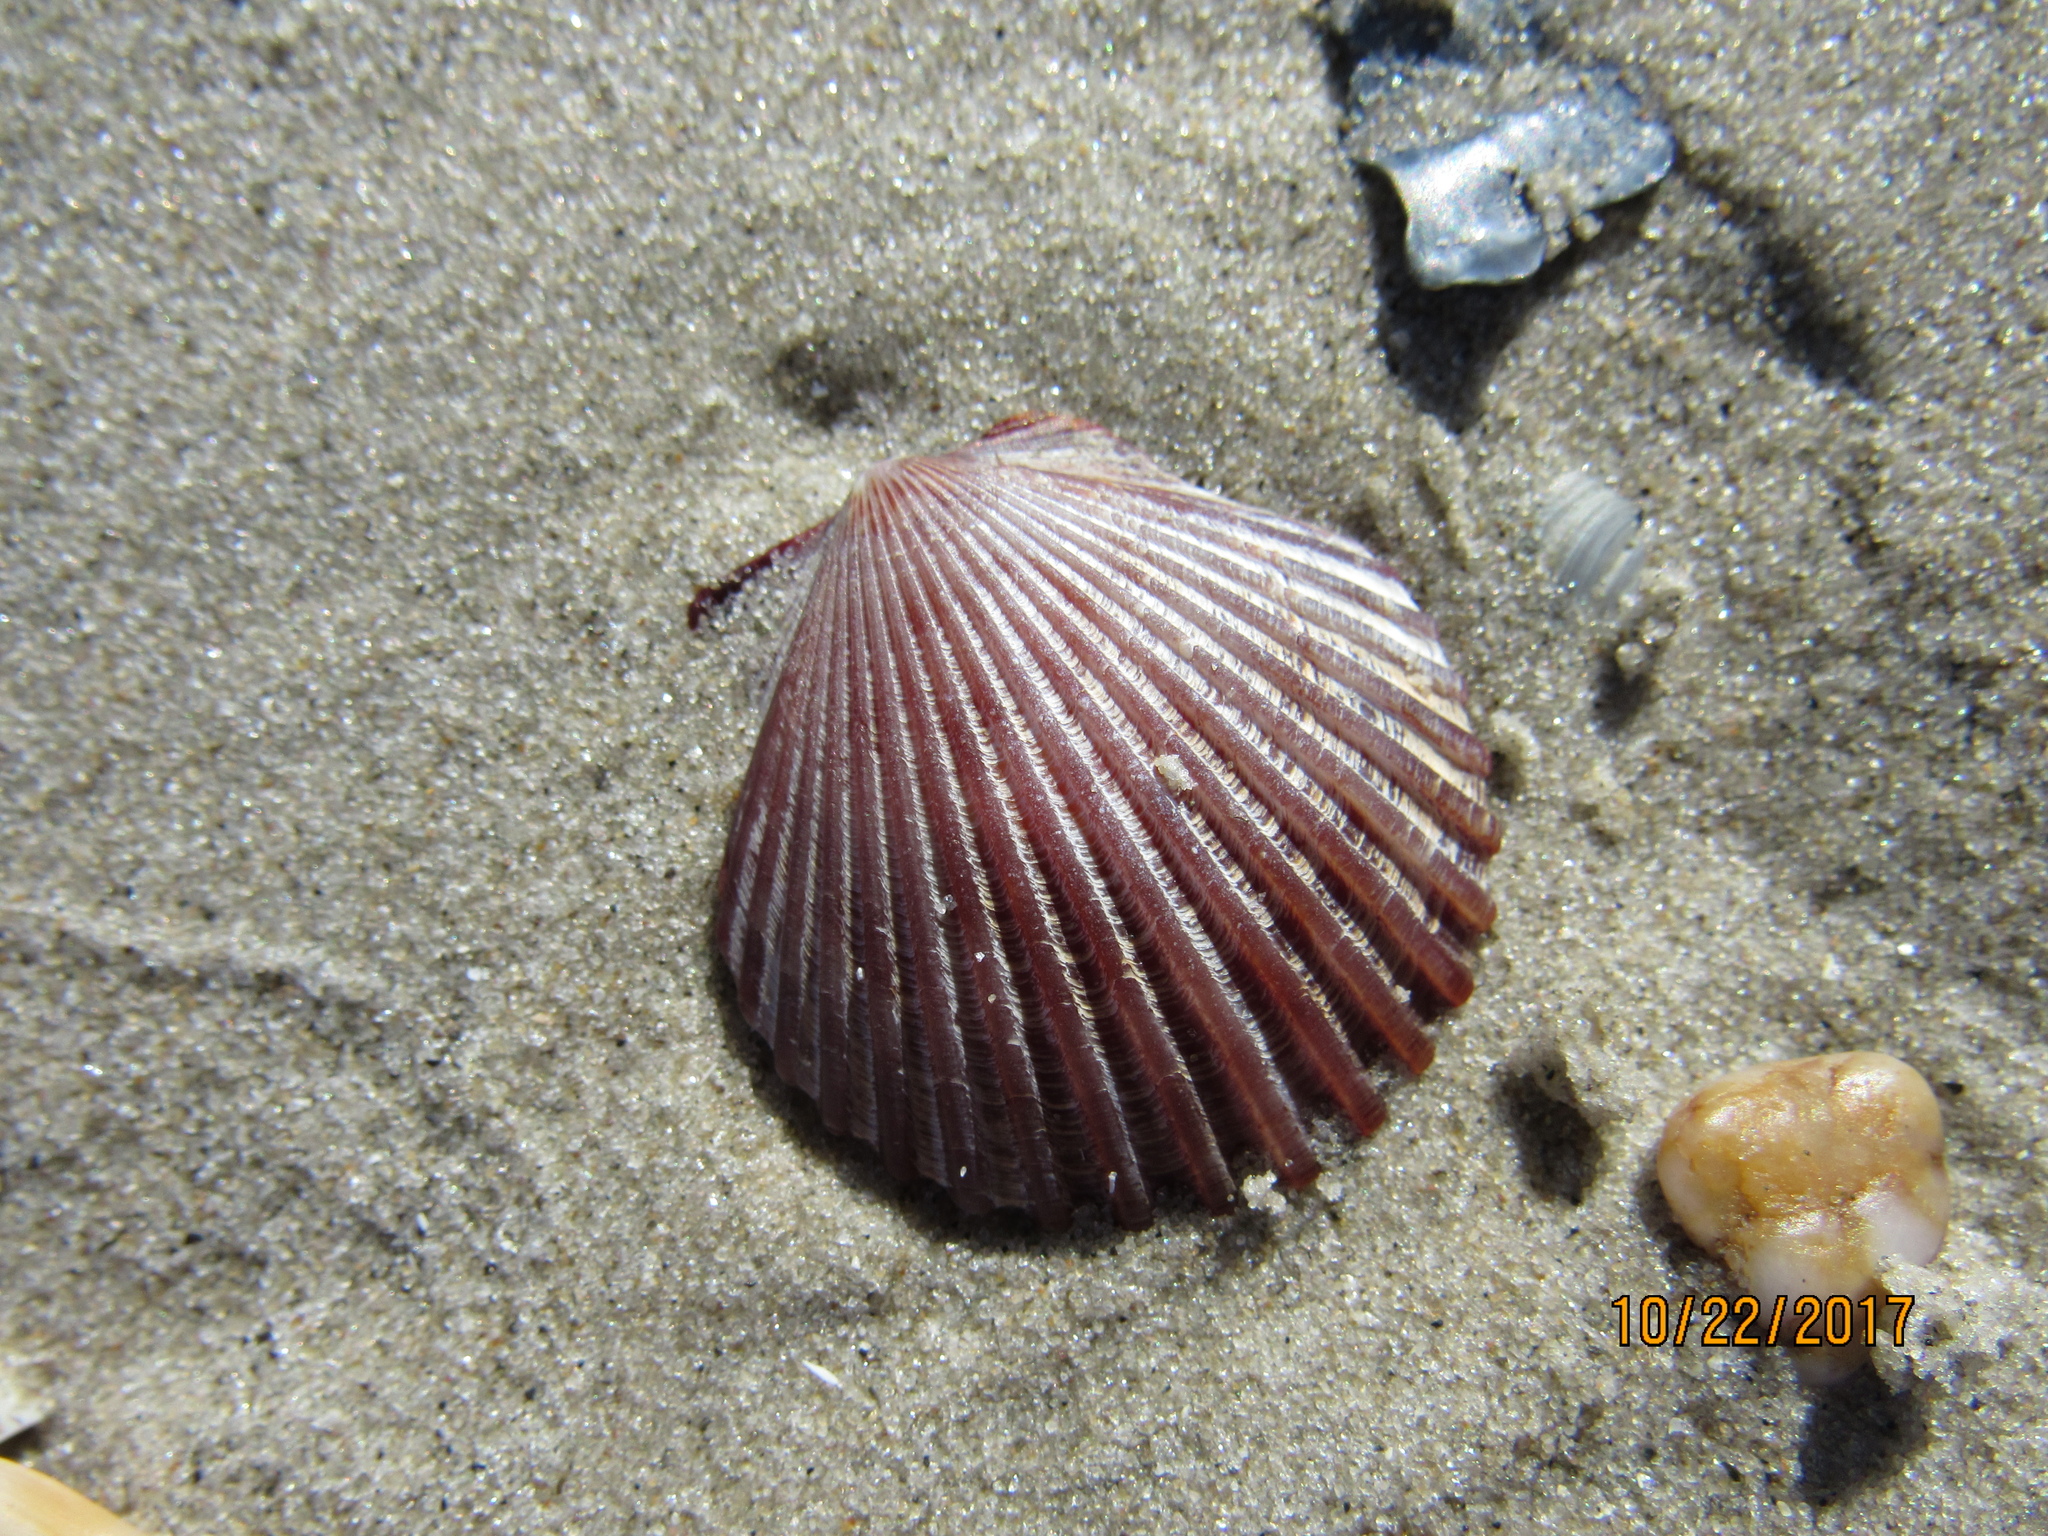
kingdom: Animalia
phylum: Mollusca
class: Bivalvia
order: Pectinida
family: Pectinidae
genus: Argopecten
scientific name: Argopecten irradians
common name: Atlantic bay scallop
